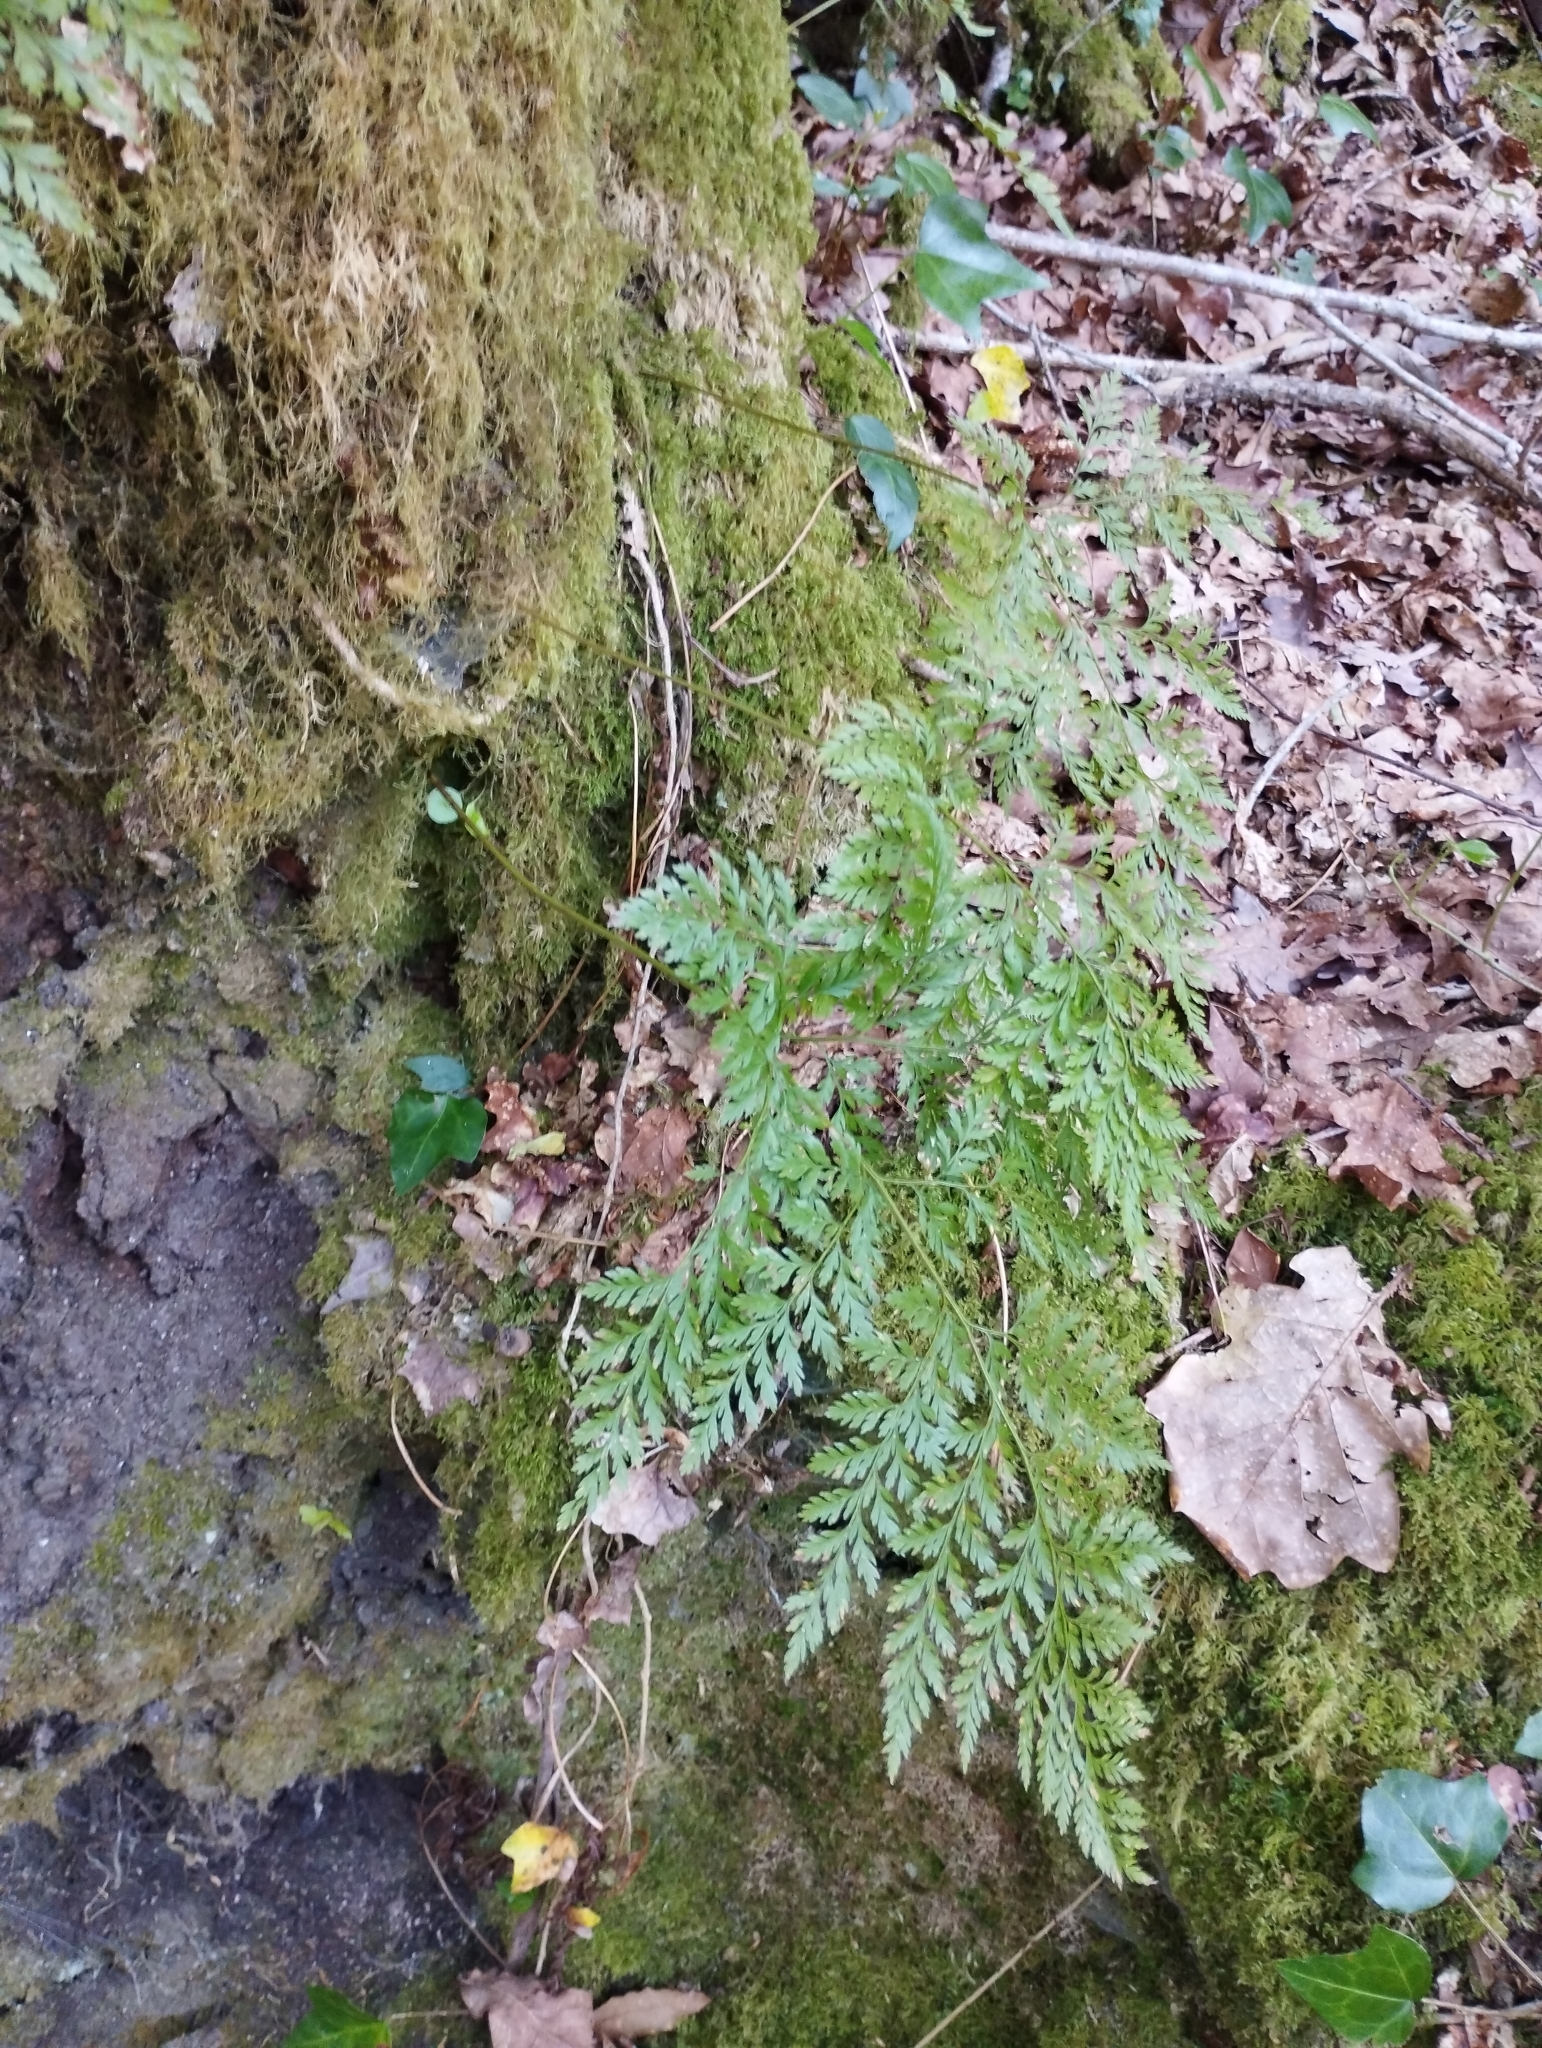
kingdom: Plantae
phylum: Tracheophyta
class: Polypodiopsida
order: Polypodiales
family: Davalliaceae
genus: Davallia
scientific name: Davallia canariensis
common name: Hare's-foot fern
